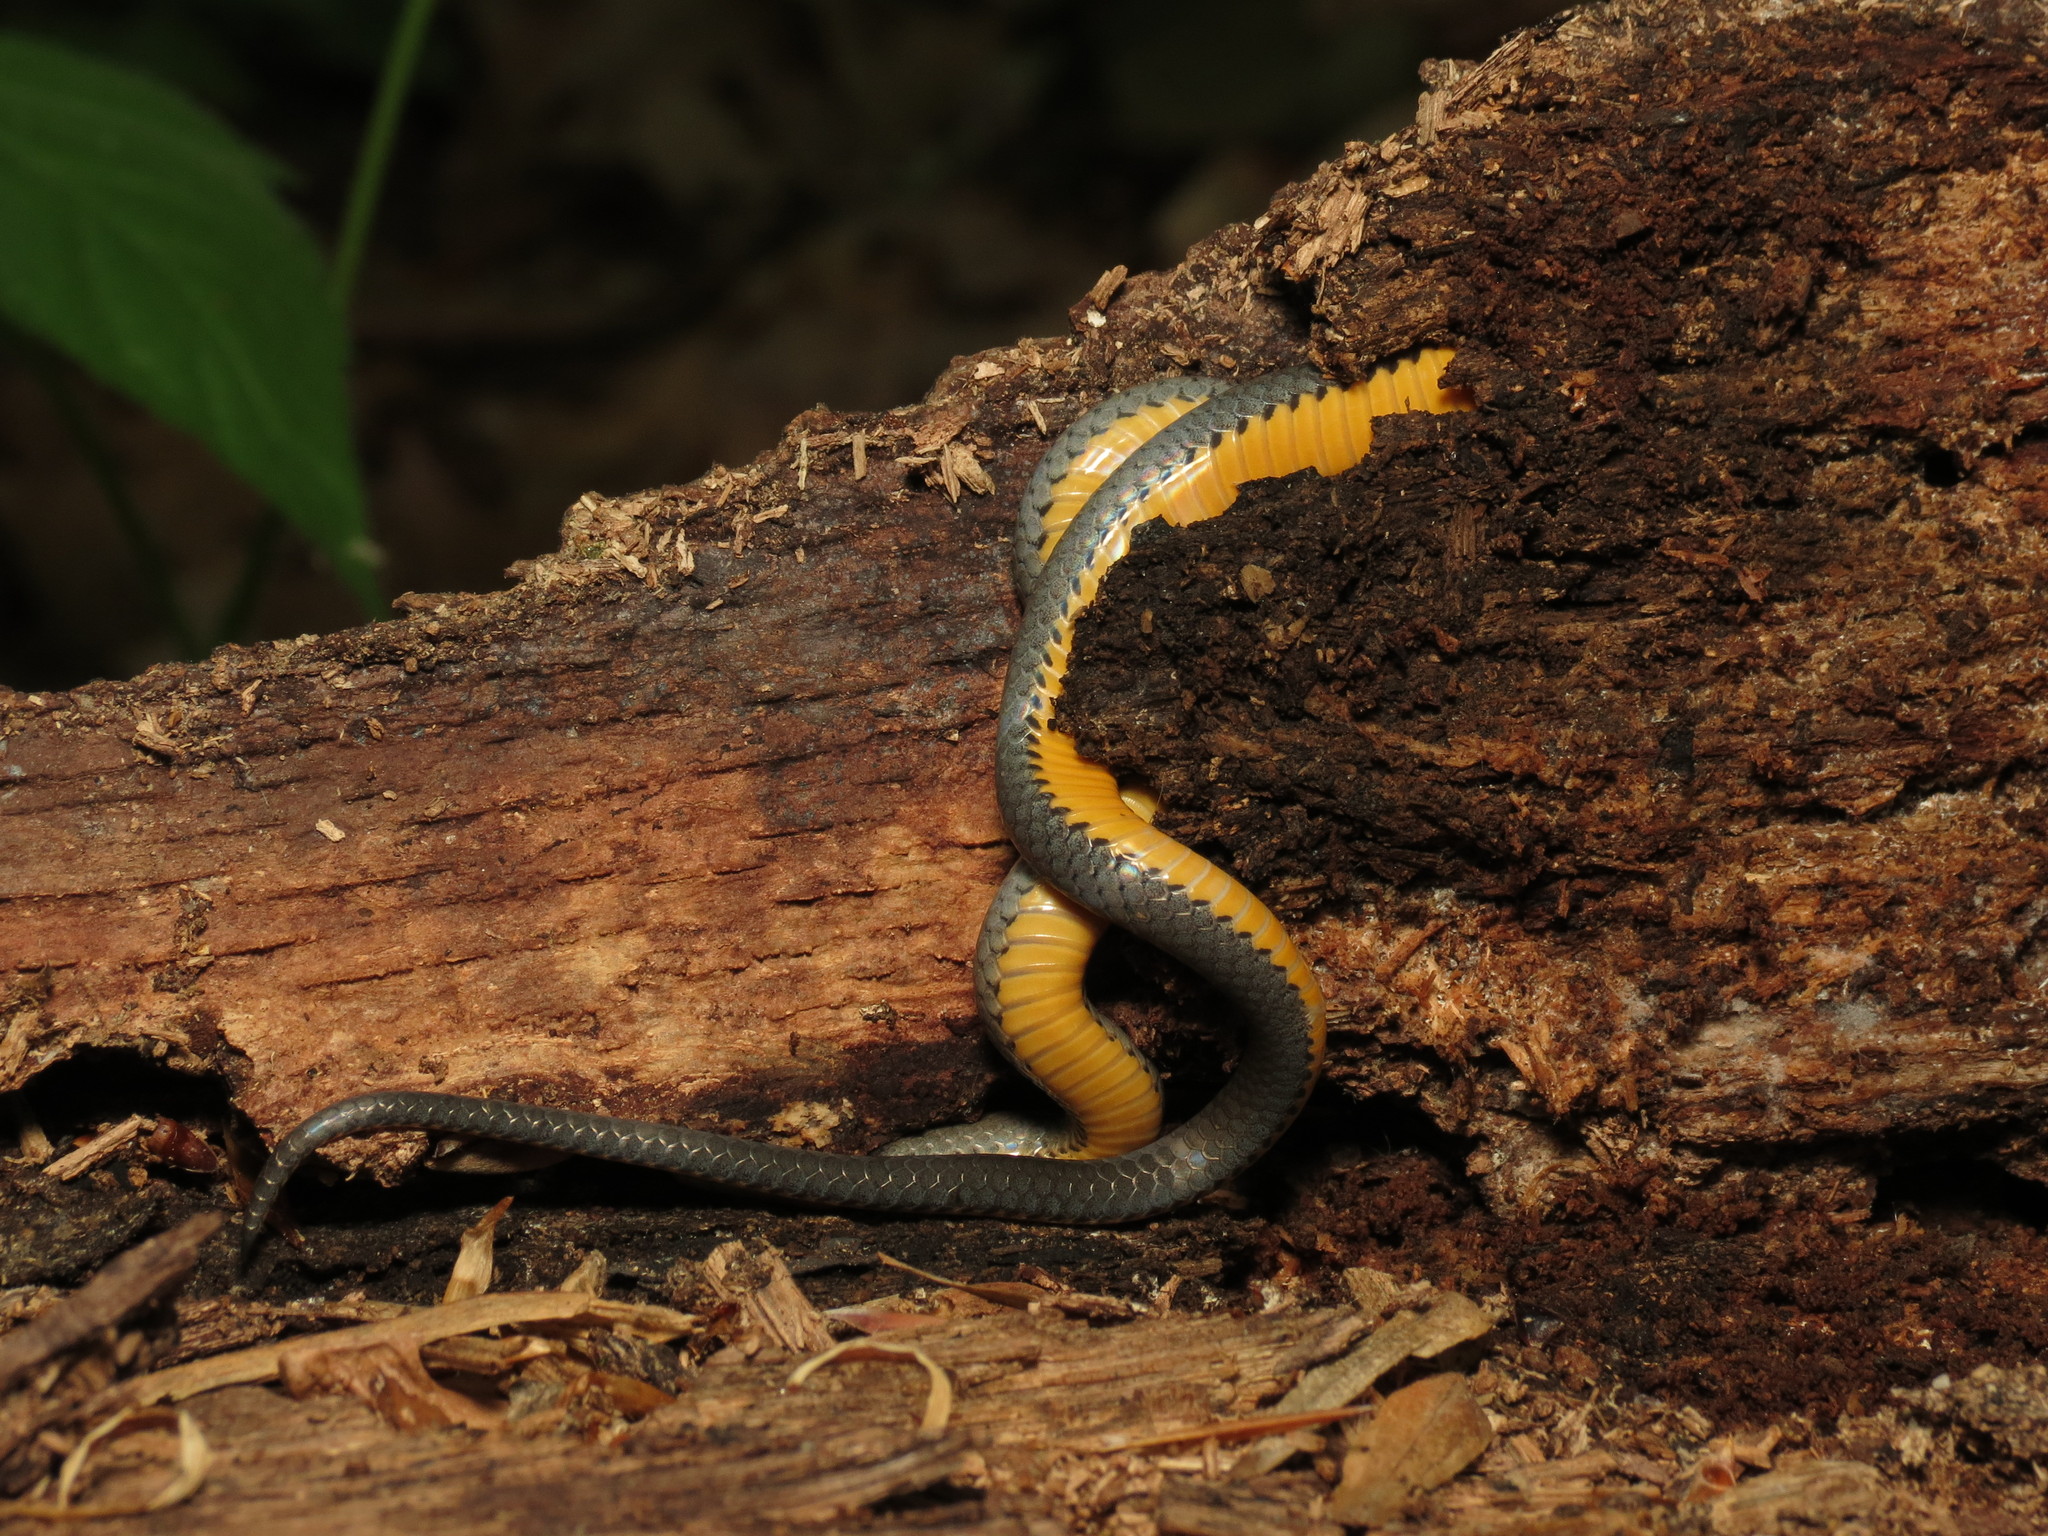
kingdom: Animalia
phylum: Chordata
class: Squamata
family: Colubridae
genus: Diadophis
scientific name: Diadophis punctatus
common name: Ringneck snake
